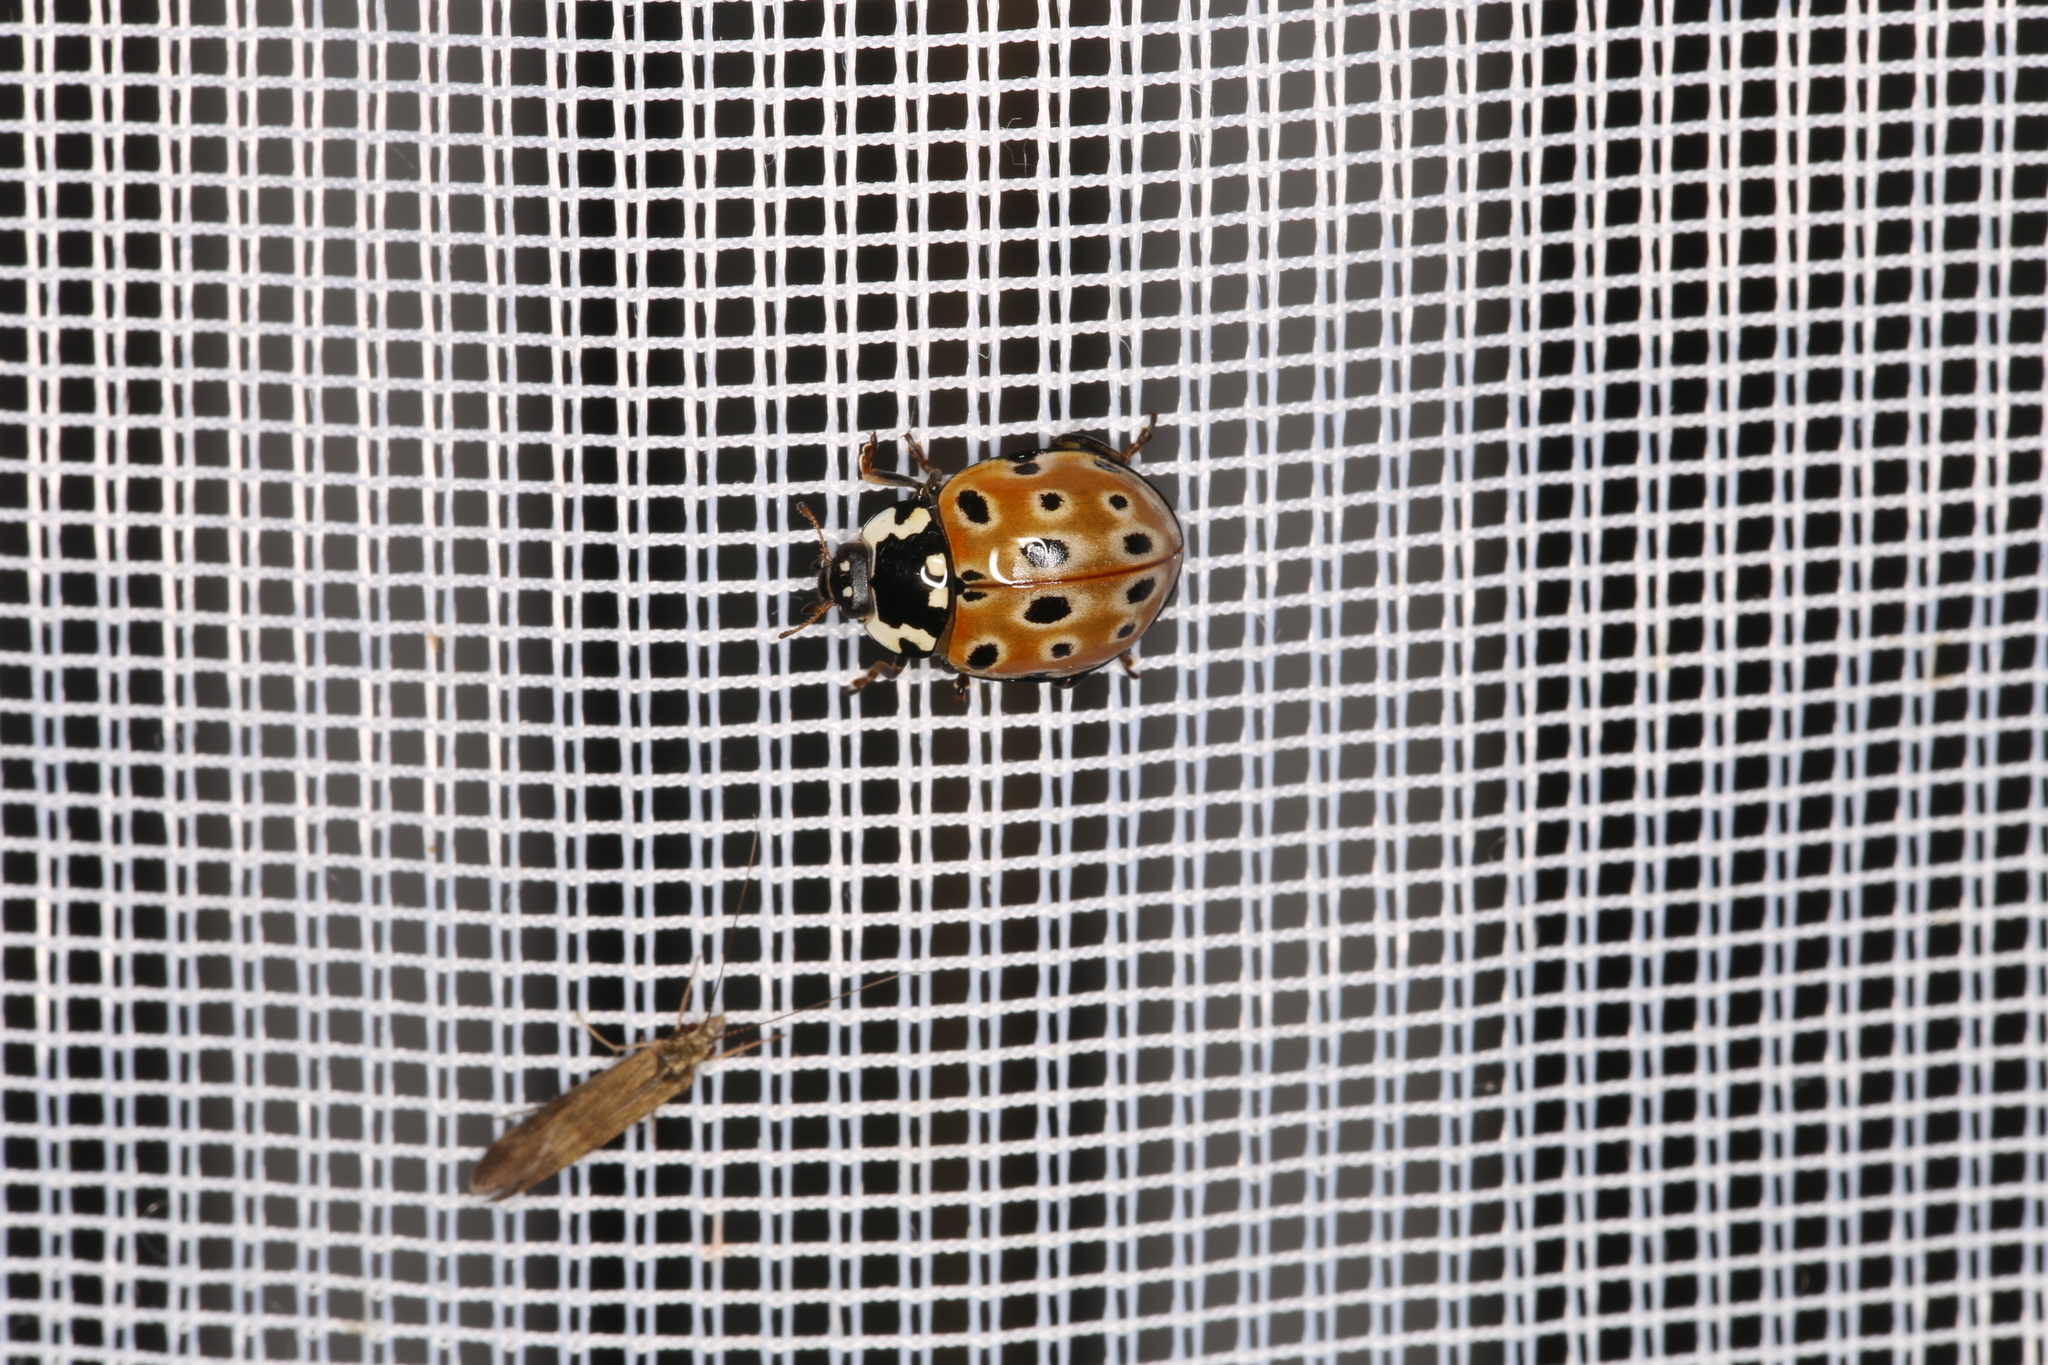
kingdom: Animalia
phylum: Arthropoda
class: Insecta
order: Coleoptera
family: Coccinellidae
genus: Anatis
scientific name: Anatis ocellata
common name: Eyed ladybird
